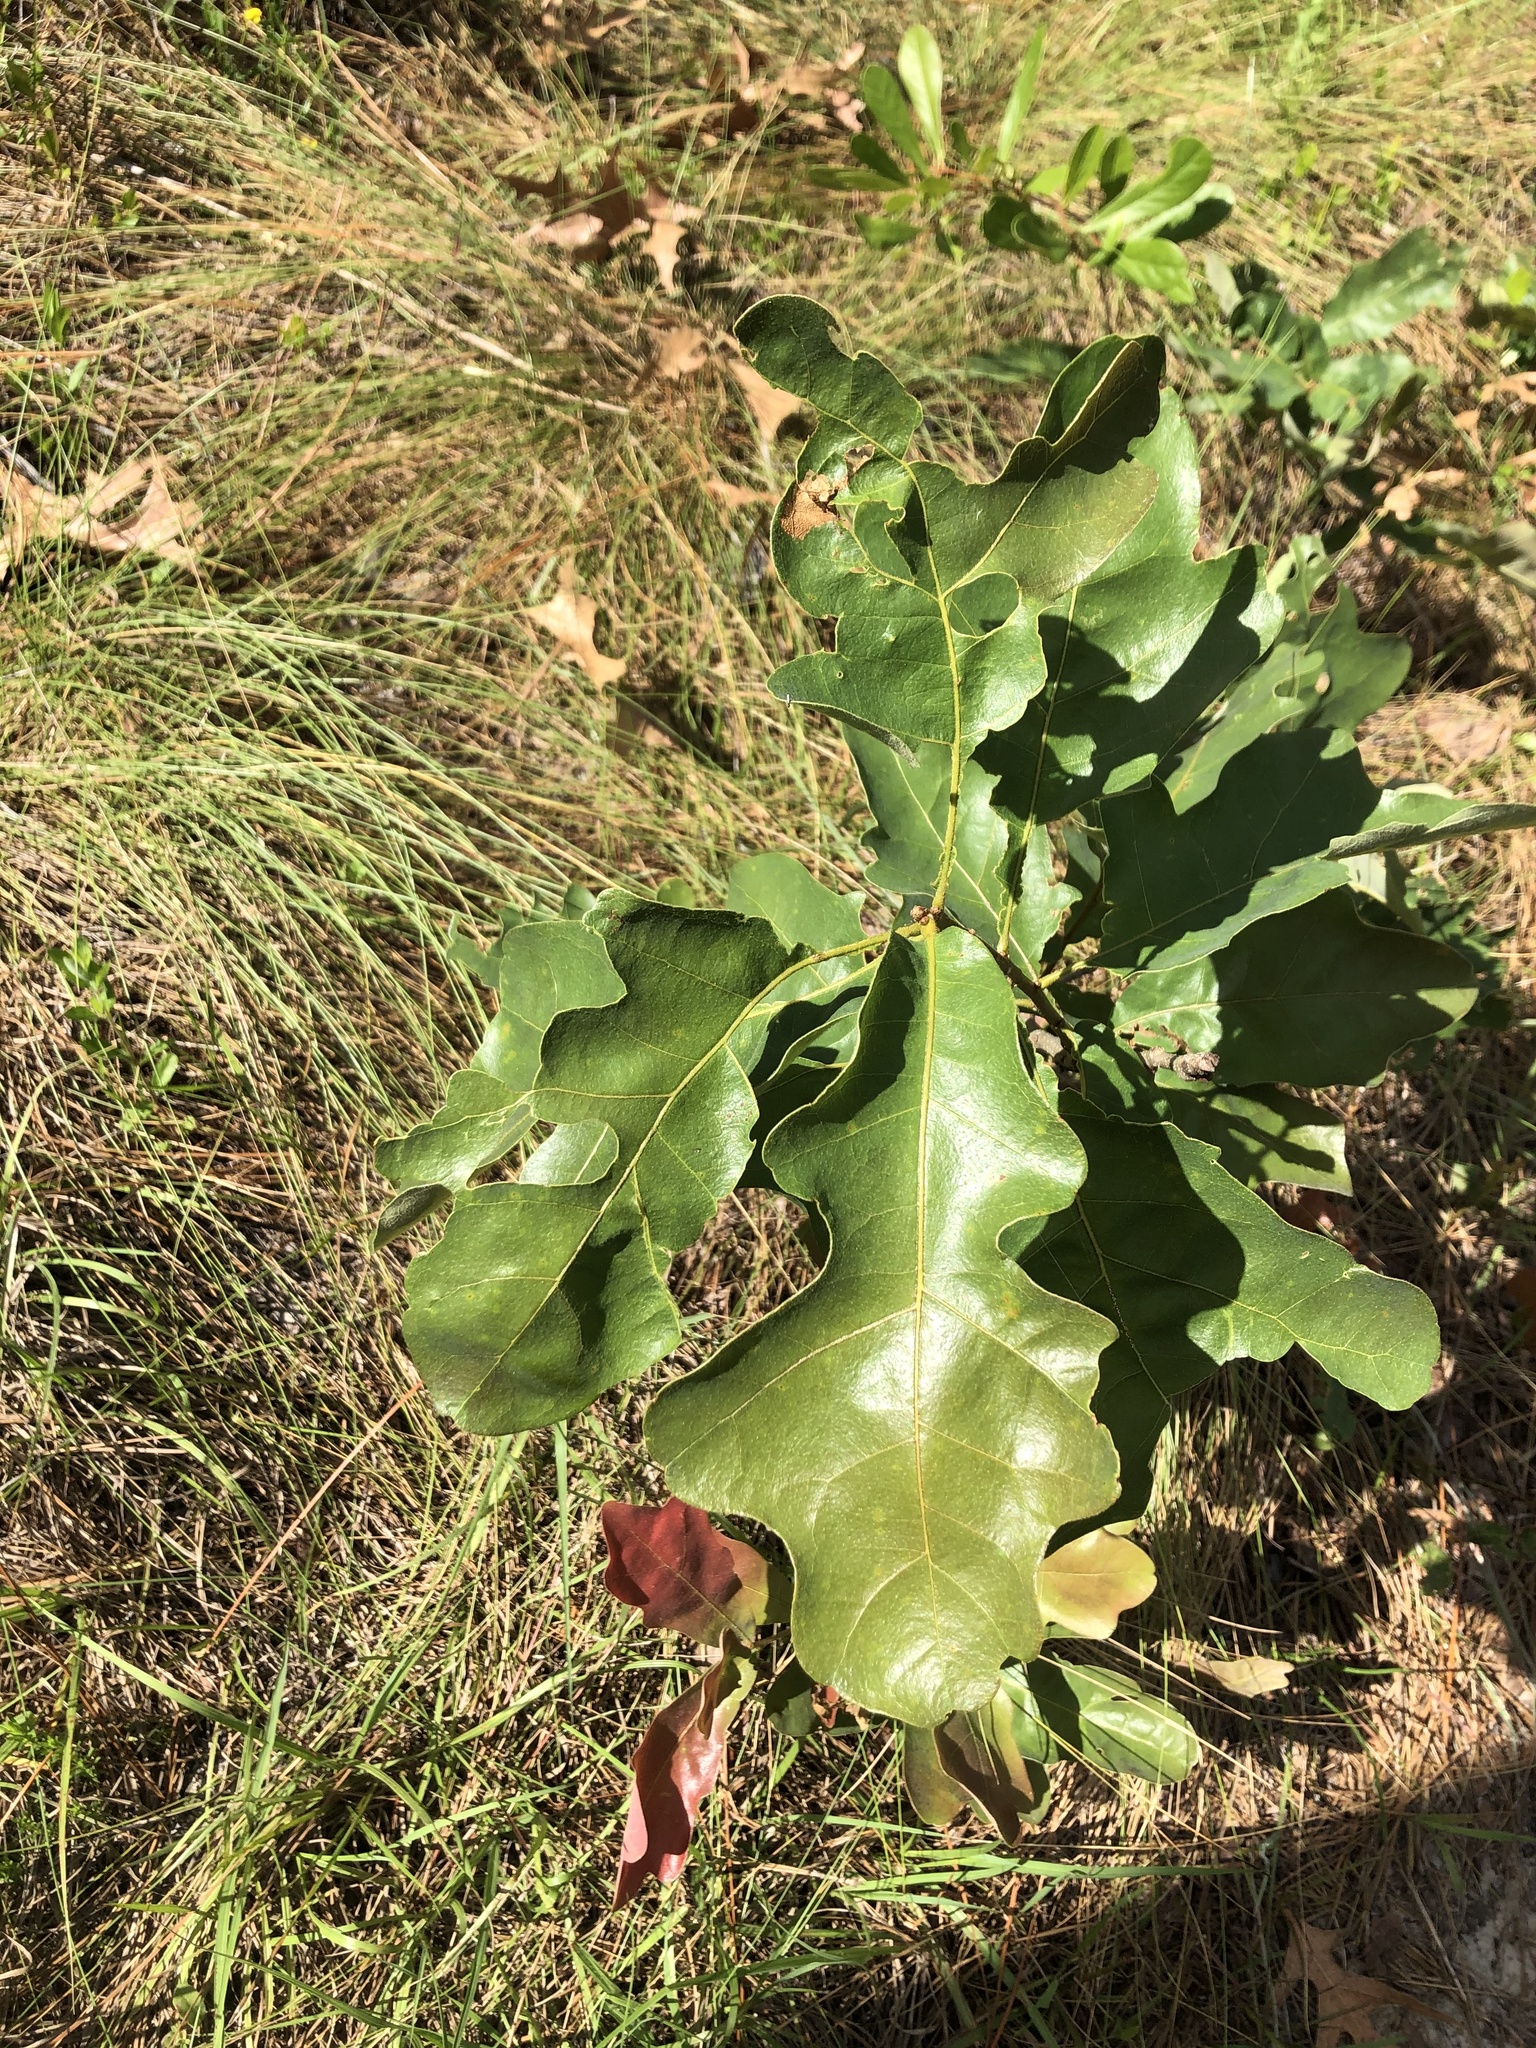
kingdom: Plantae
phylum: Tracheophyta
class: Magnoliopsida
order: Fagales
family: Fagaceae
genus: Quercus
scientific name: Quercus margaretiae
